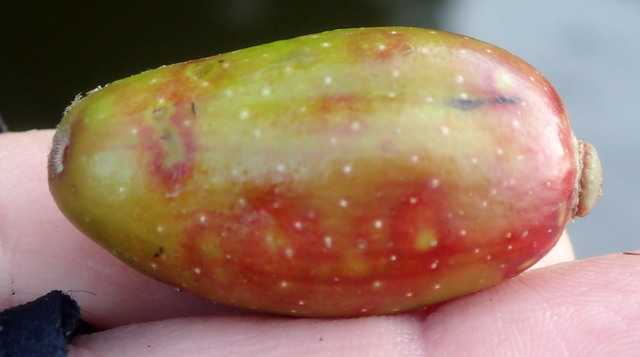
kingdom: Plantae
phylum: Tracheophyta
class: Magnoliopsida
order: Cornales
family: Nyssaceae
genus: Nyssa
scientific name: Nyssa ogeche
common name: Ogeechee tupelo
